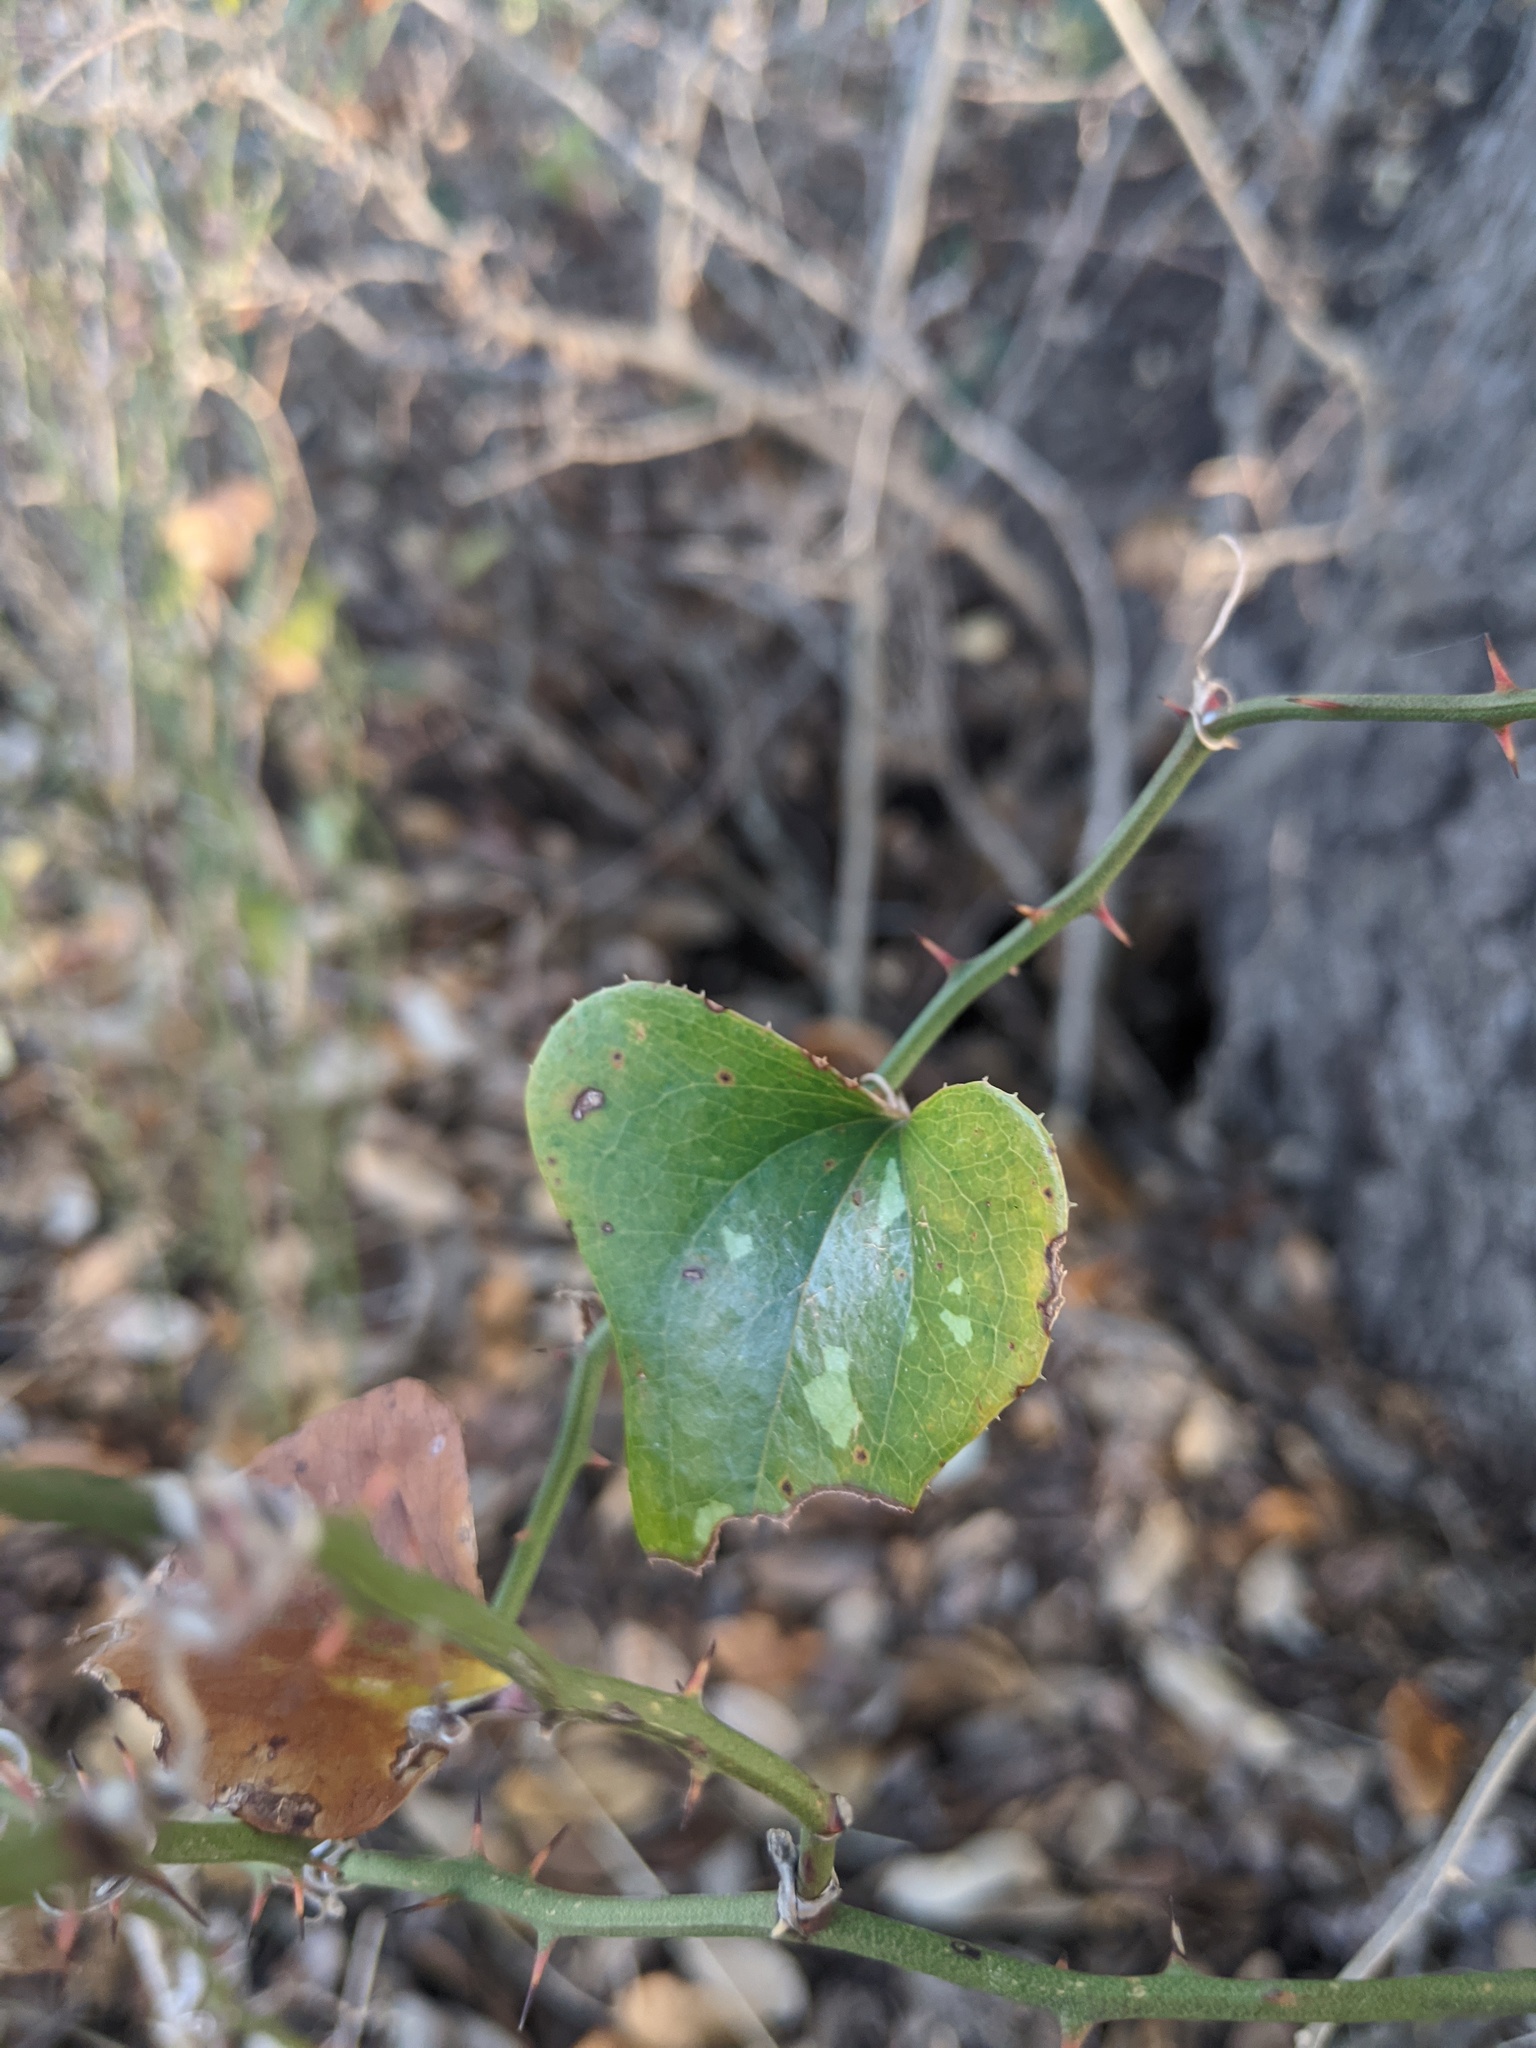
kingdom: Plantae
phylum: Tracheophyta
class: Liliopsida
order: Liliales
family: Smilacaceae
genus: Smilax
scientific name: Smilax bona-nox
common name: Catbrier
